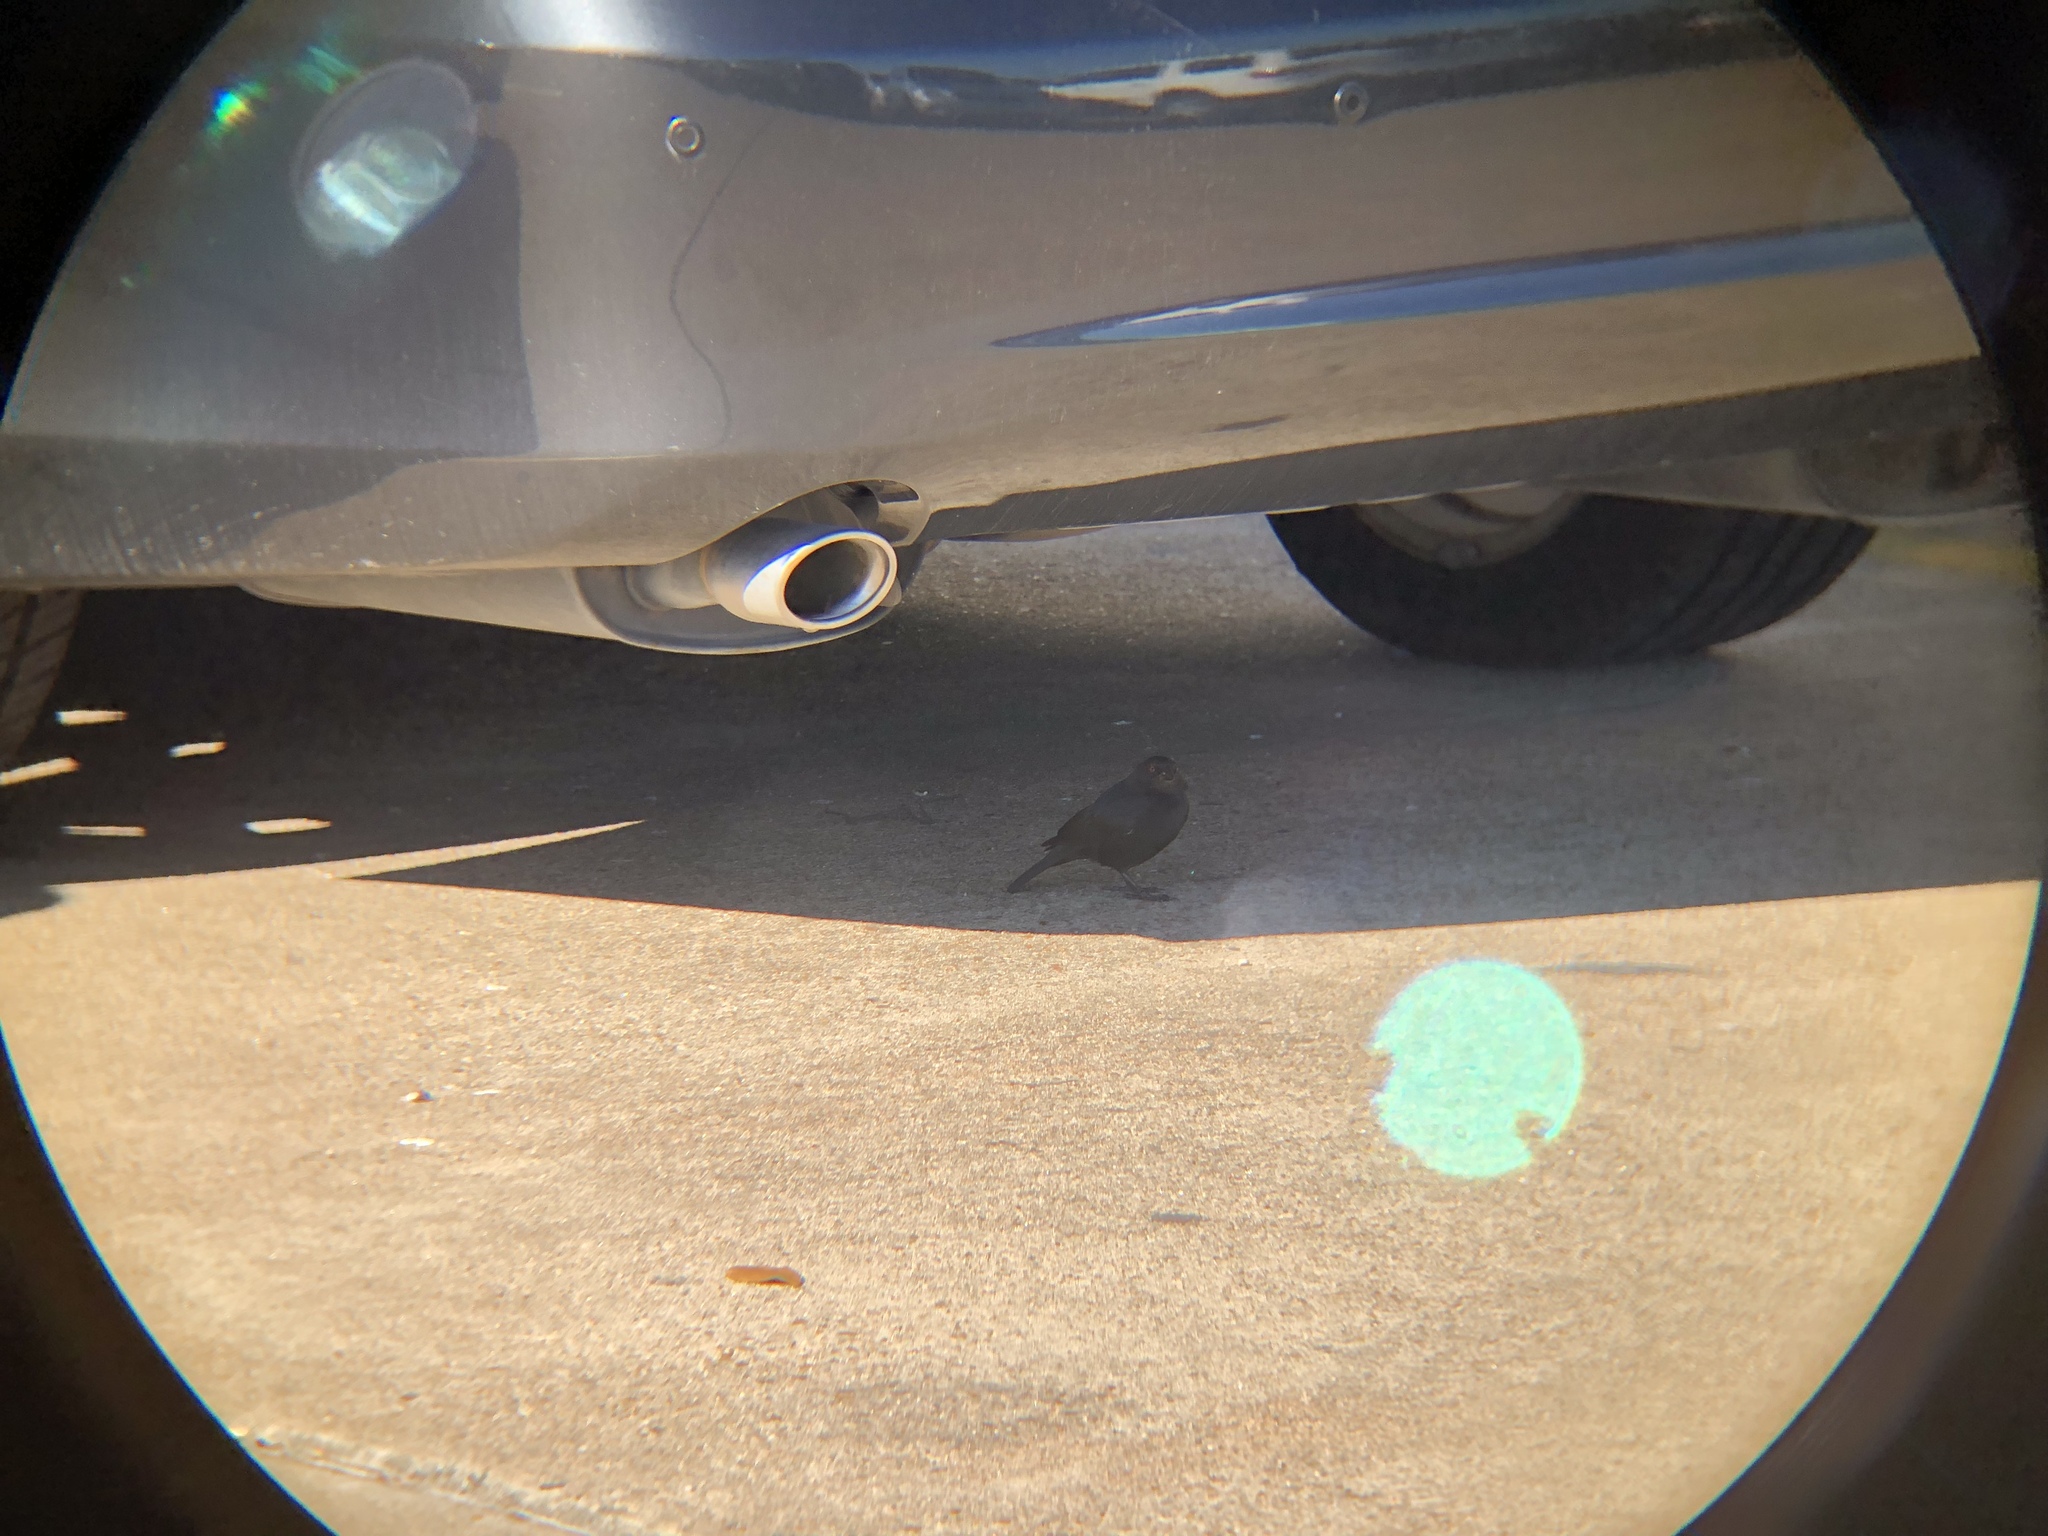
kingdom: Animalia
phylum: Chordata
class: Aves
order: Passeriformes
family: Icteridae
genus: Molothrus
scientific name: Molothrus aeneus
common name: Bronzed cowbird
